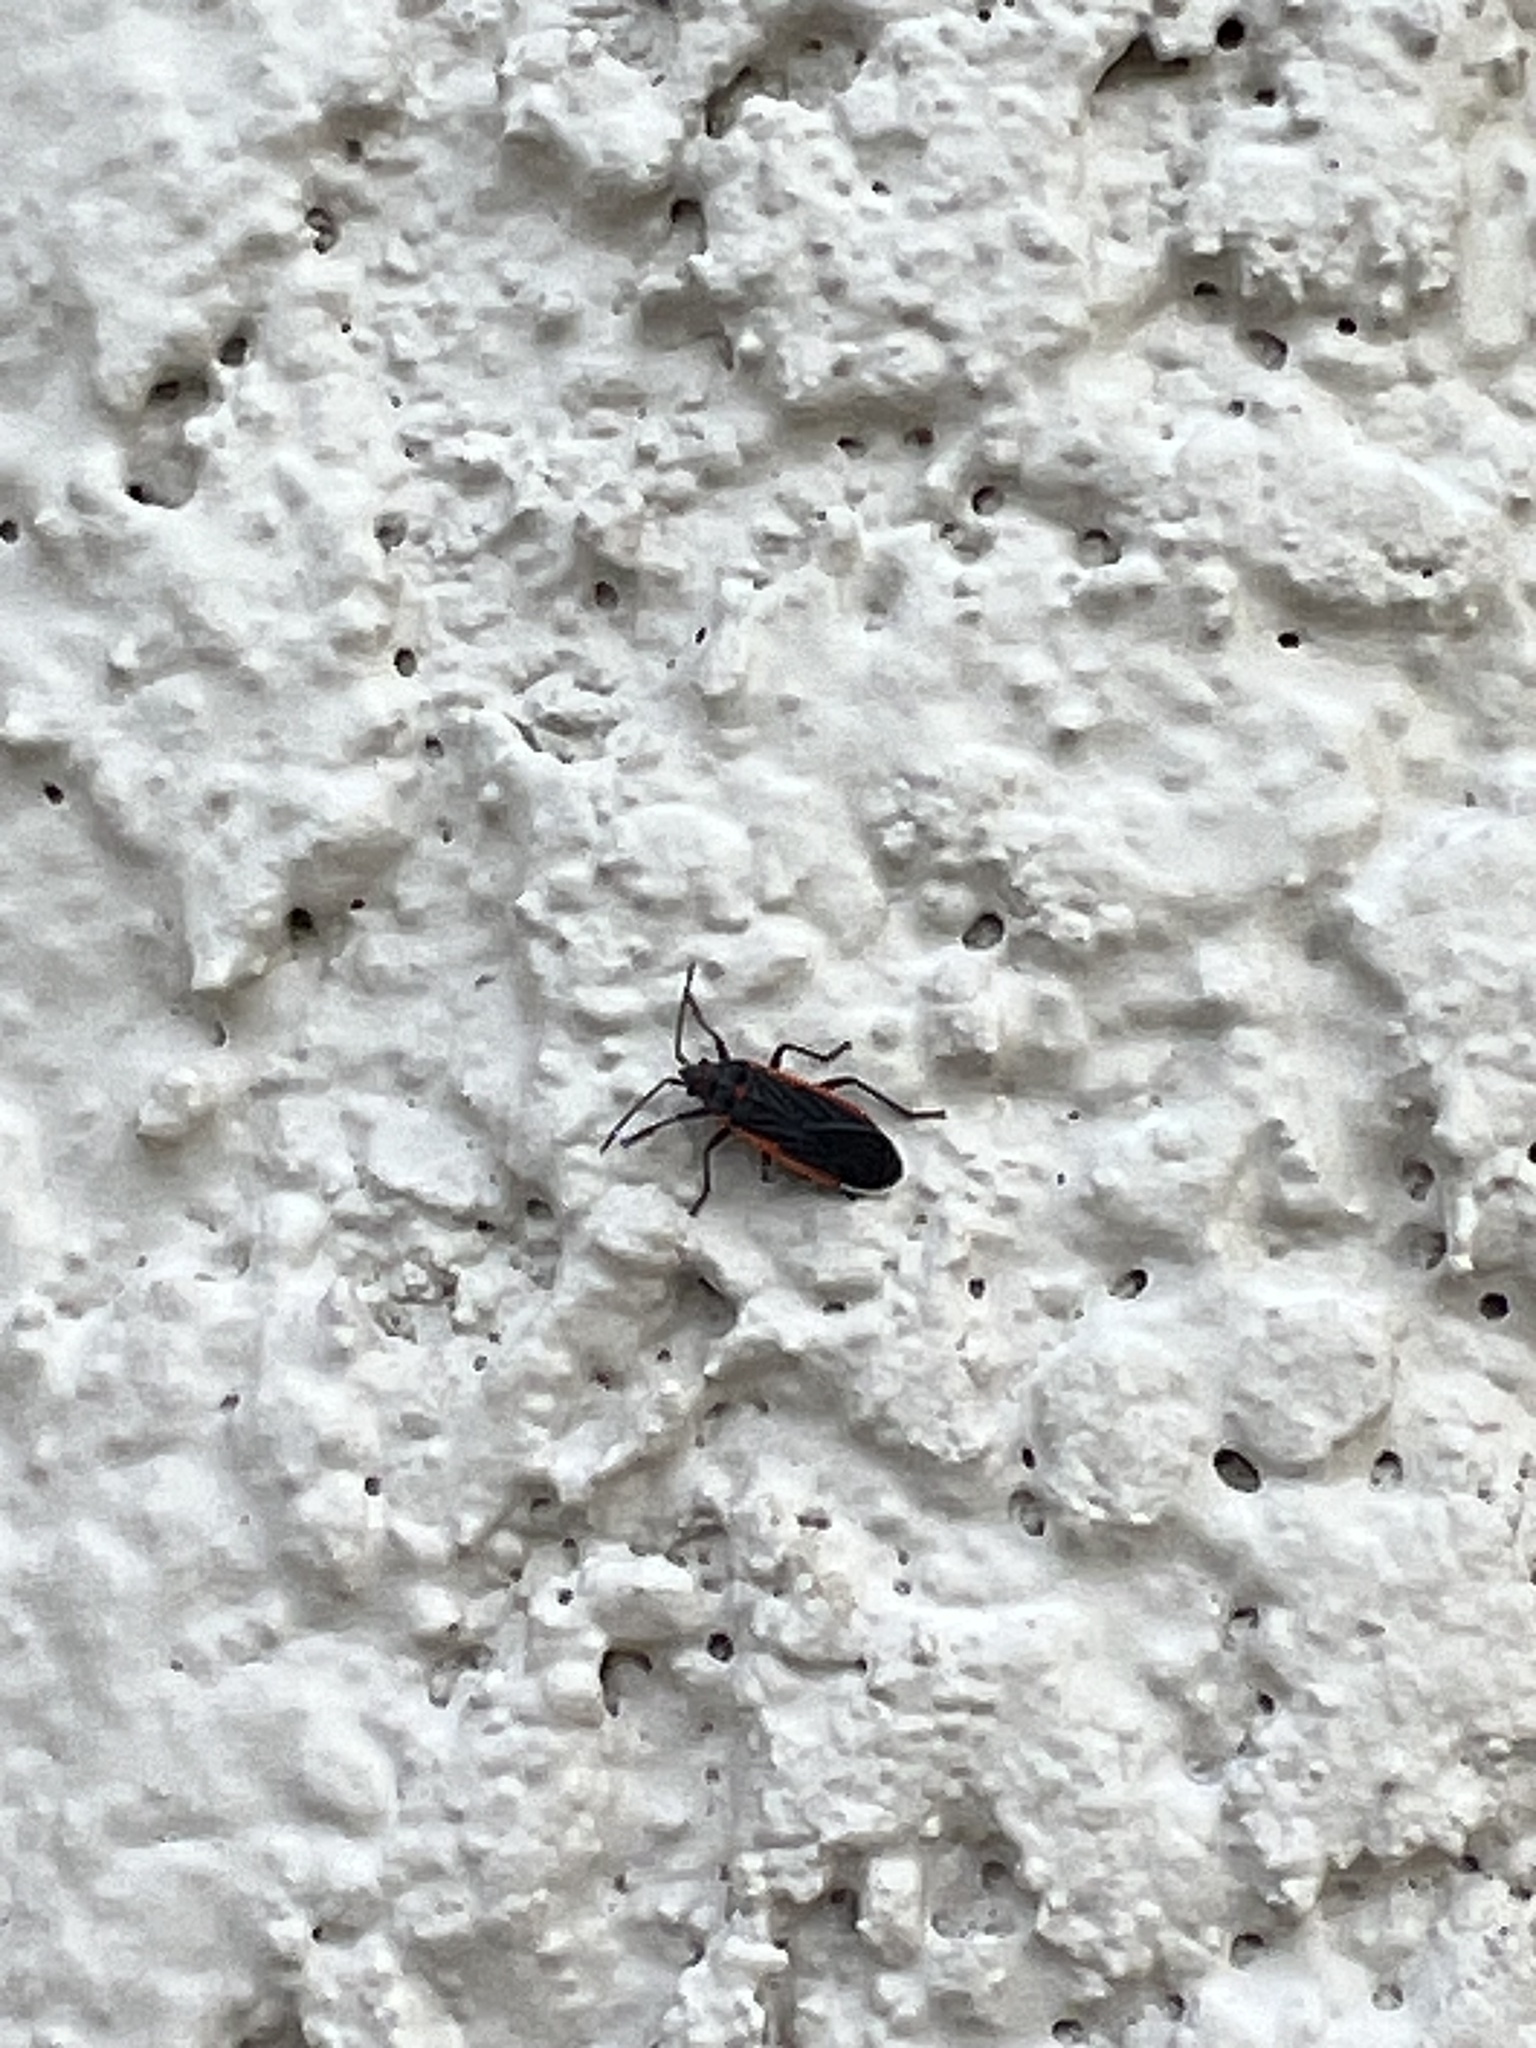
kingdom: Animalia
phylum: Arthropoda
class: Insecta
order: Hemiptera
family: Lygaeidae
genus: Melacoryphus
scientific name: Melacoryphus lateralis
